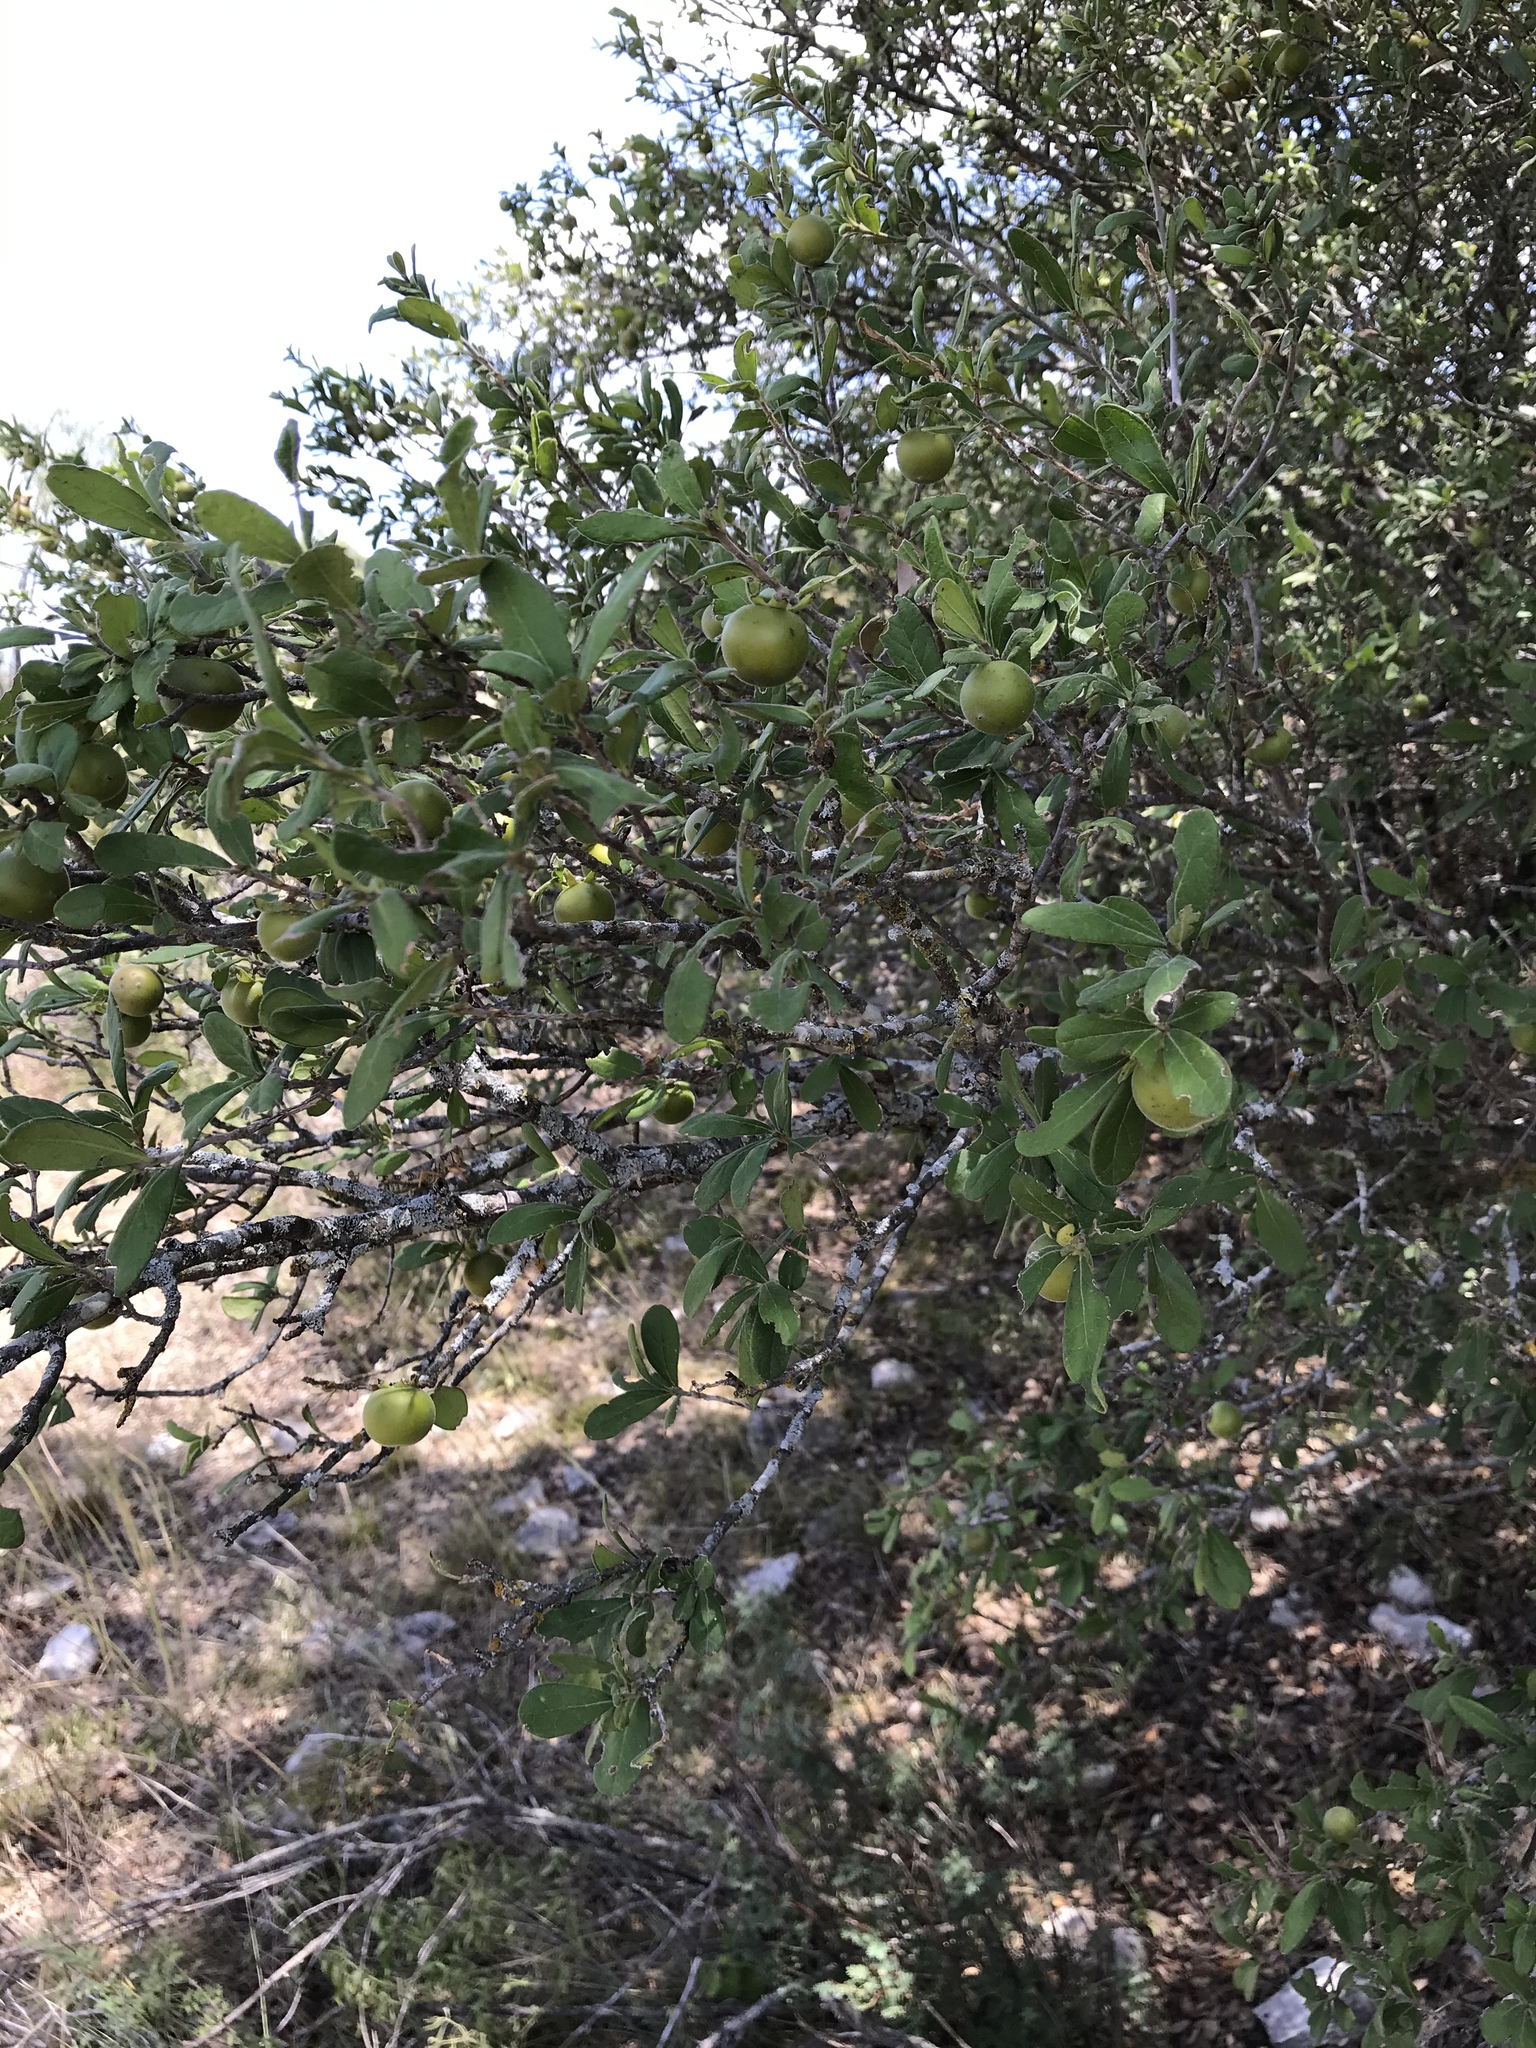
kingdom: Plantae
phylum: Tracheophyta
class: Magnoliopsida
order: Ericales
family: Ebenaceae
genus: Diospyros
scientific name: Diospyros texana
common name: Texas persimmon
